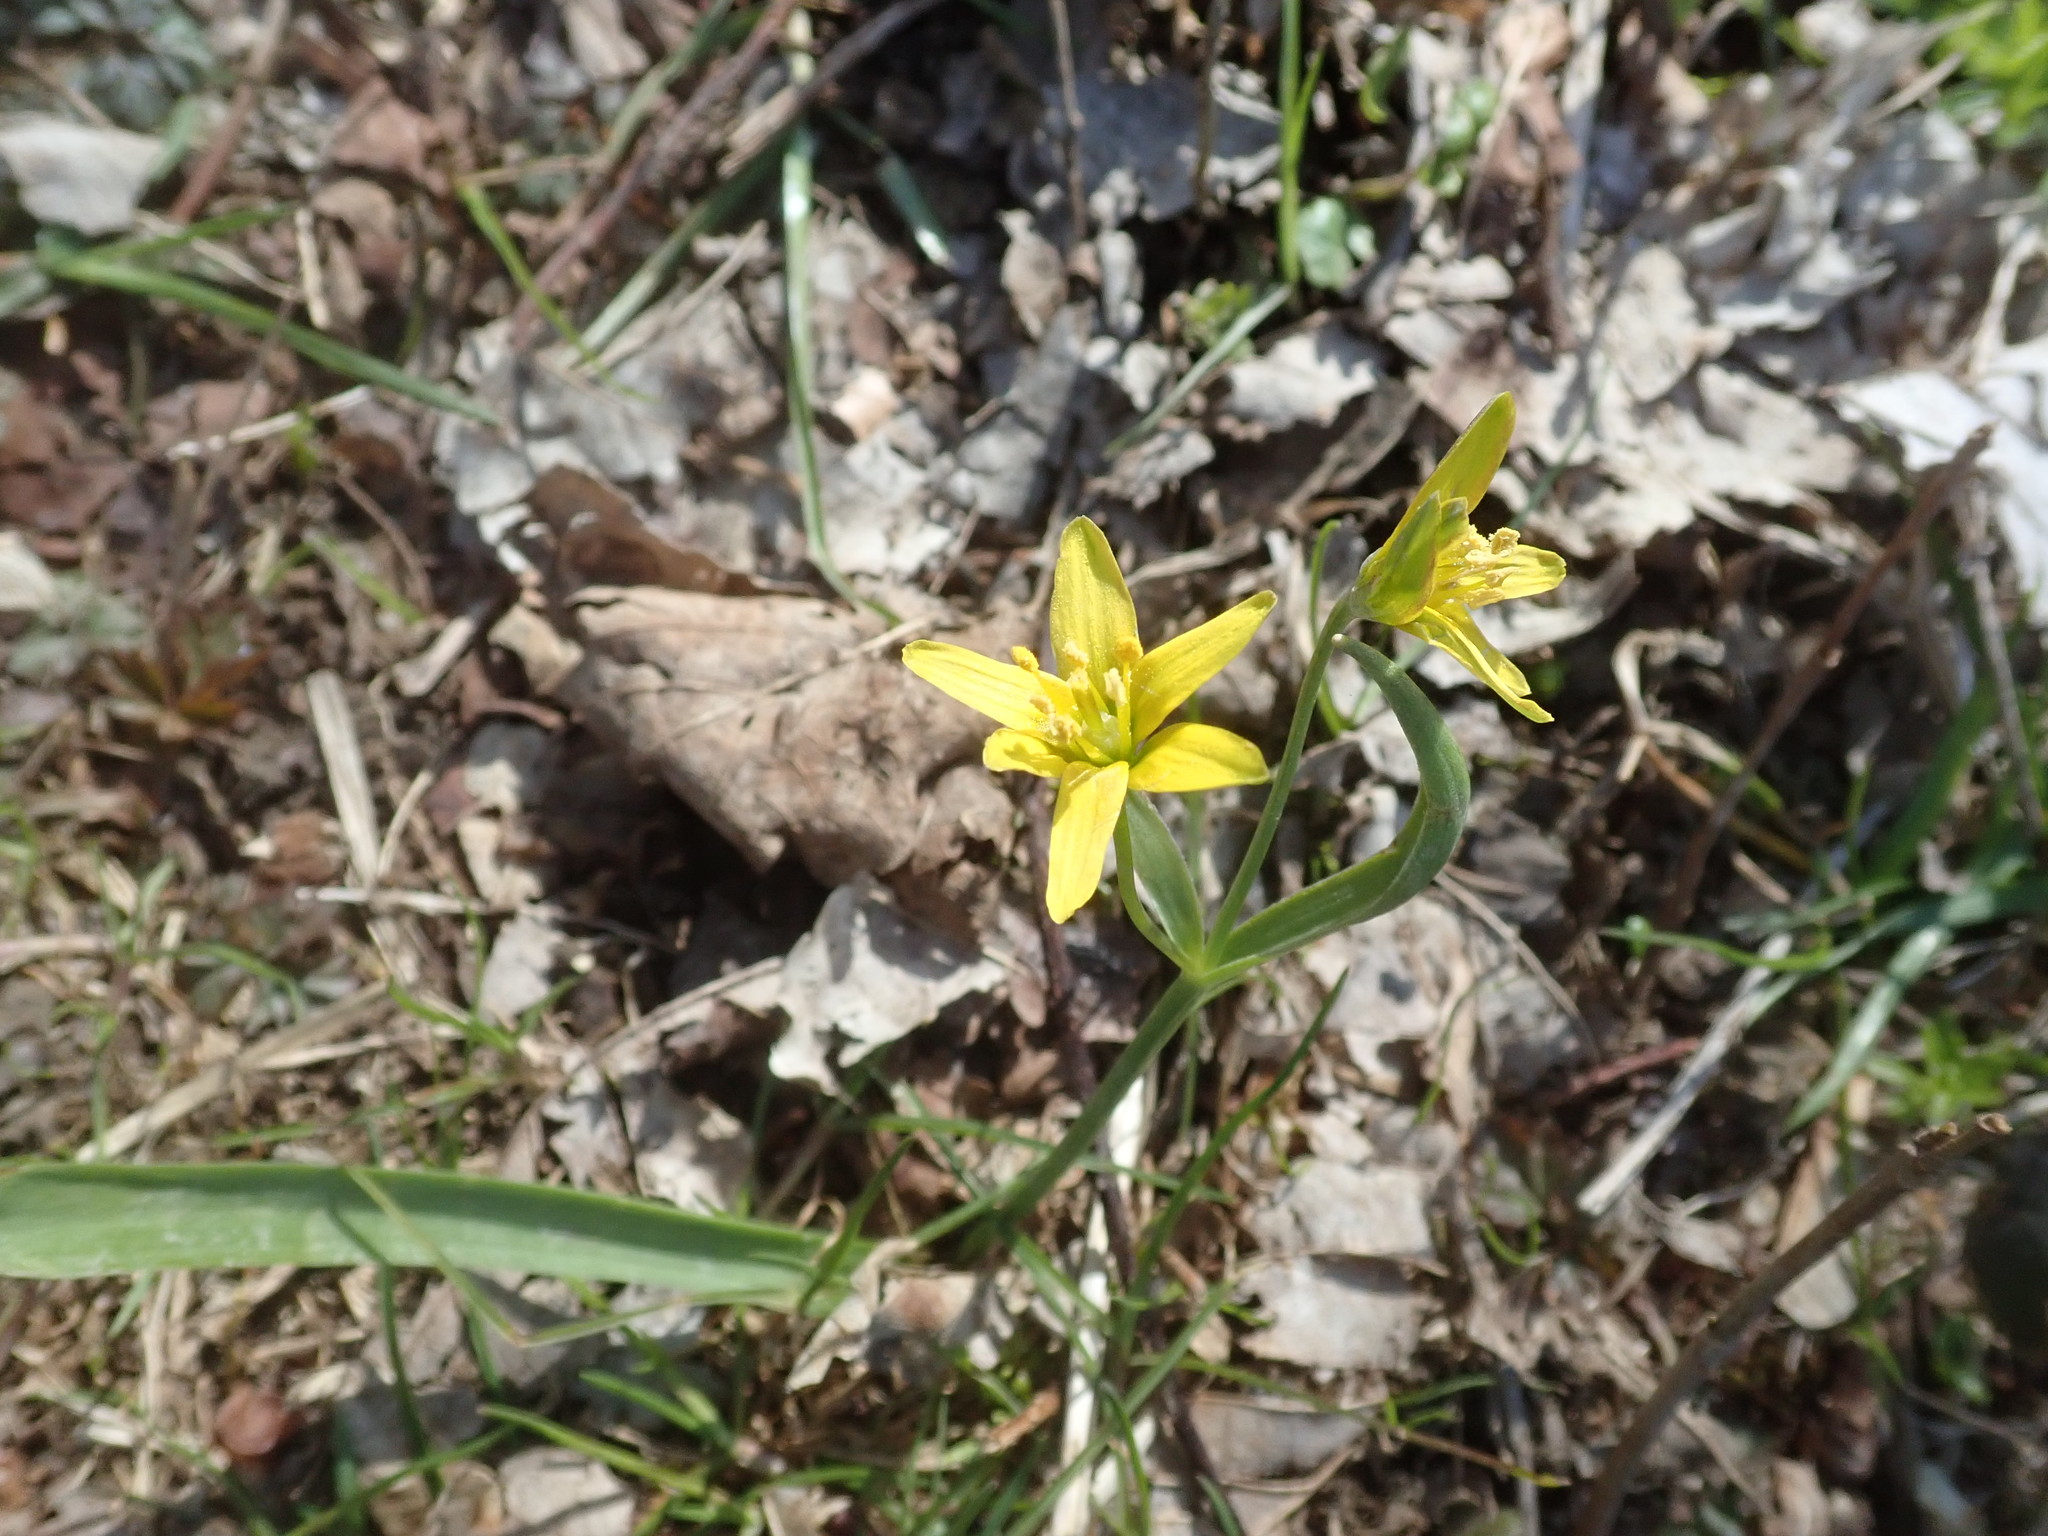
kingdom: Plantae
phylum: Tracheophyta
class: Liliopsida
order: Liliales
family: Liliaceae
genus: Gagea
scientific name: Gagea lutea
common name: Yellow star-of-bethlehem
